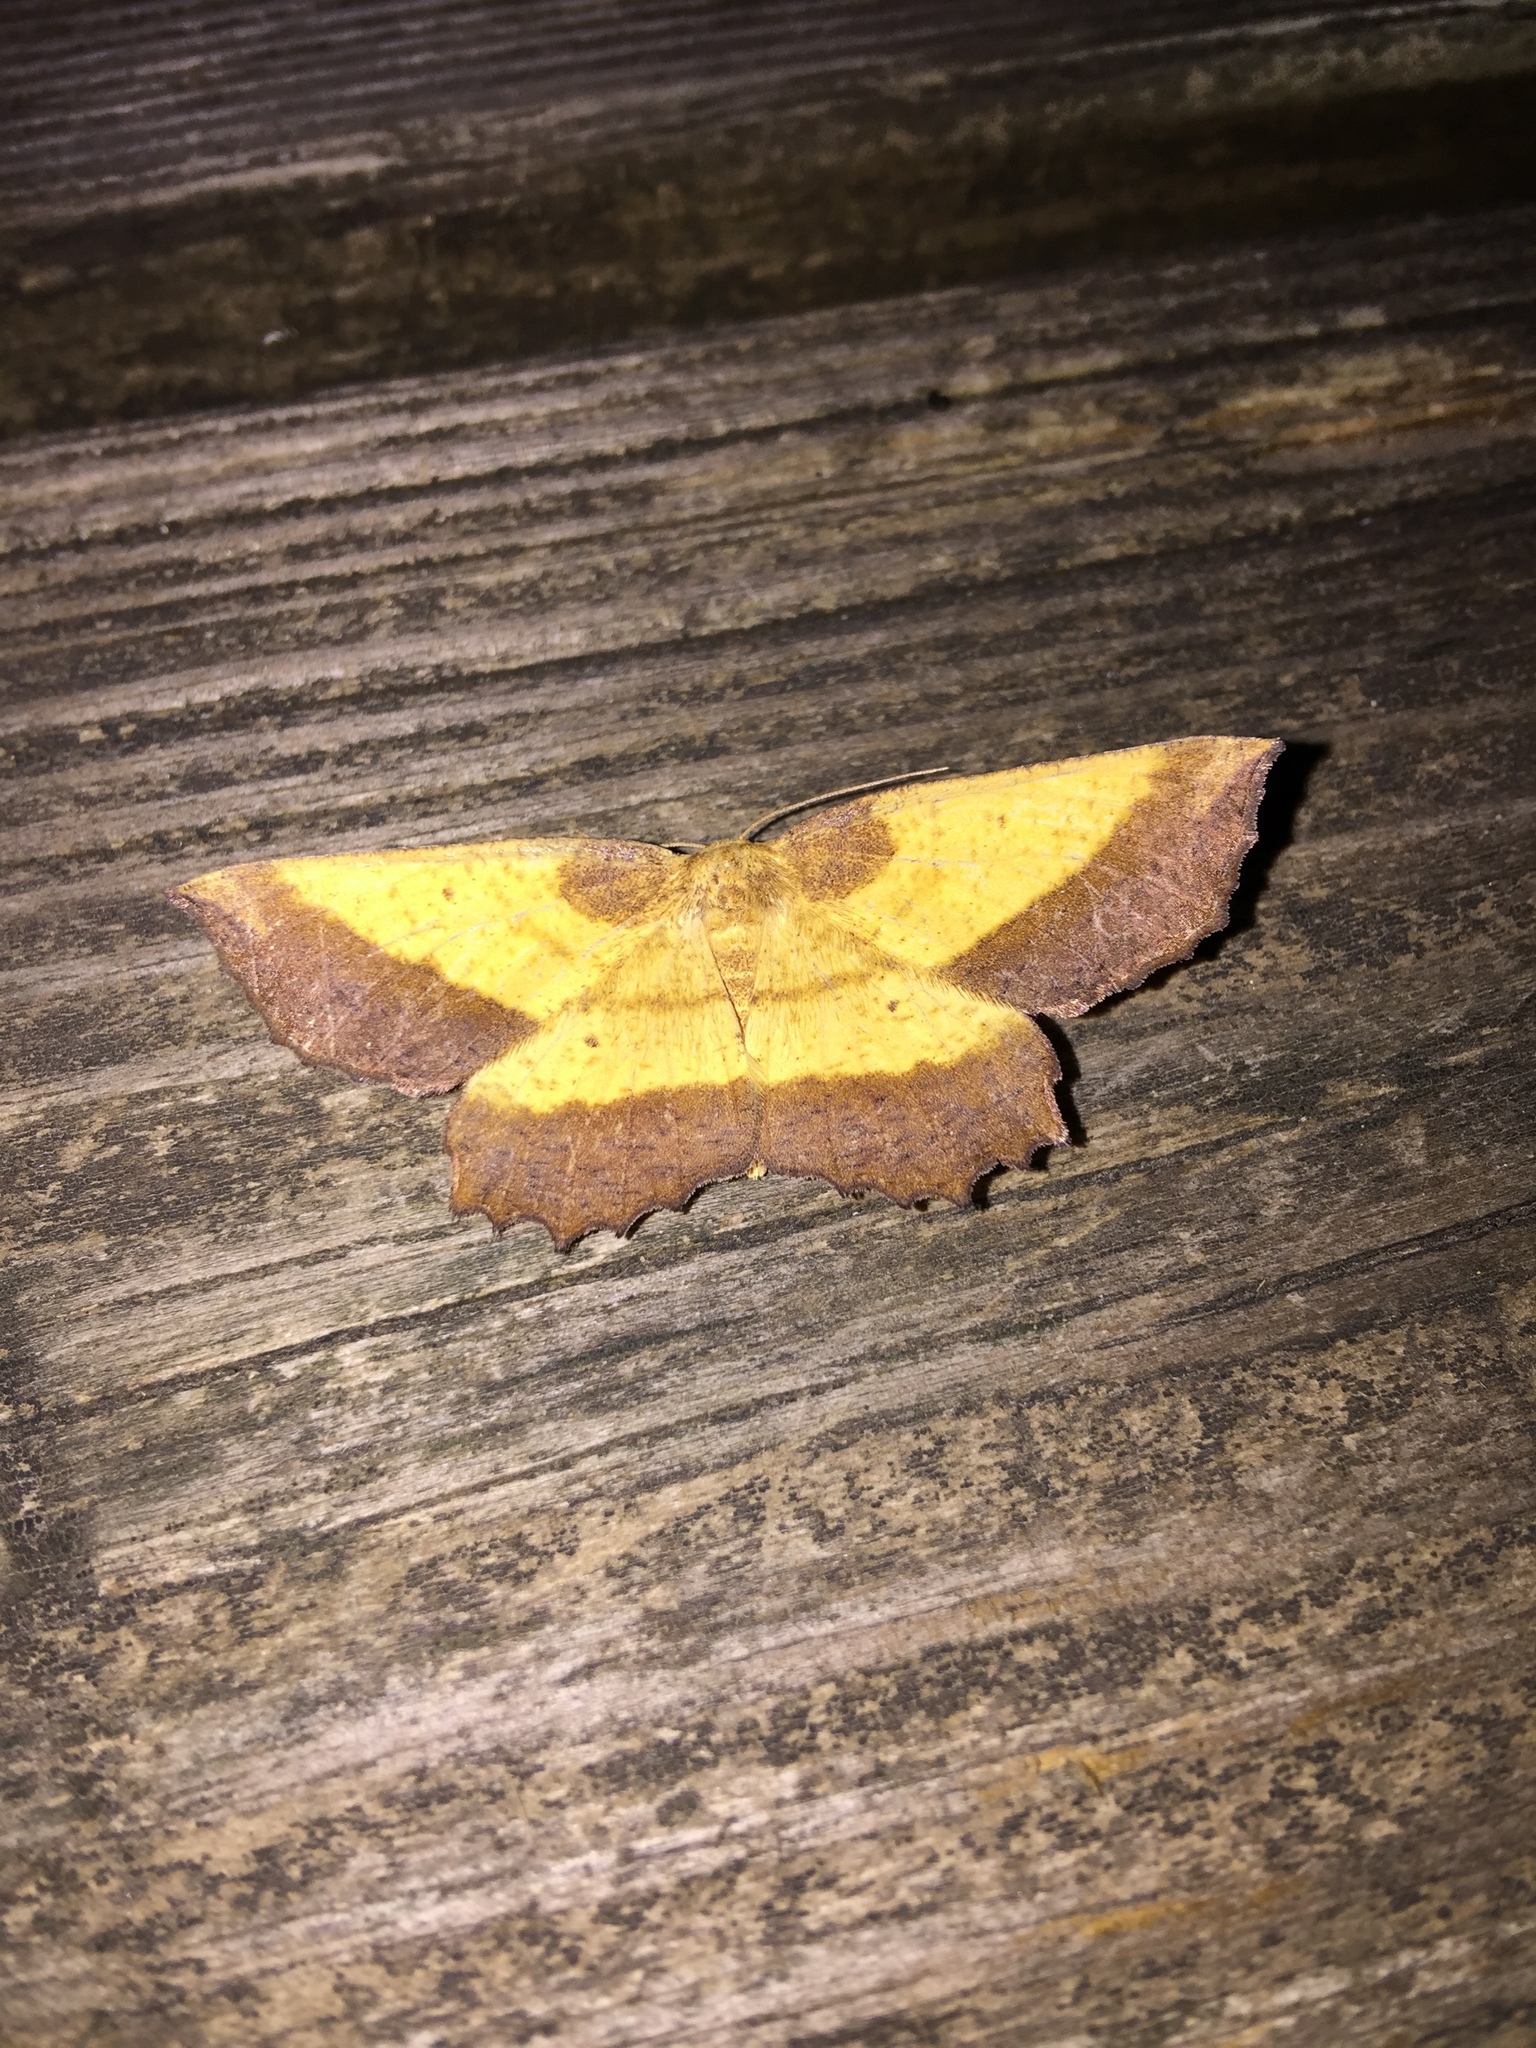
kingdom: Animalia
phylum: Arthropoda
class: Insecta
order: Lepidoptera
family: Geometridae
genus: Euchlaena
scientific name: Euchlaena serrata
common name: Saw wing
